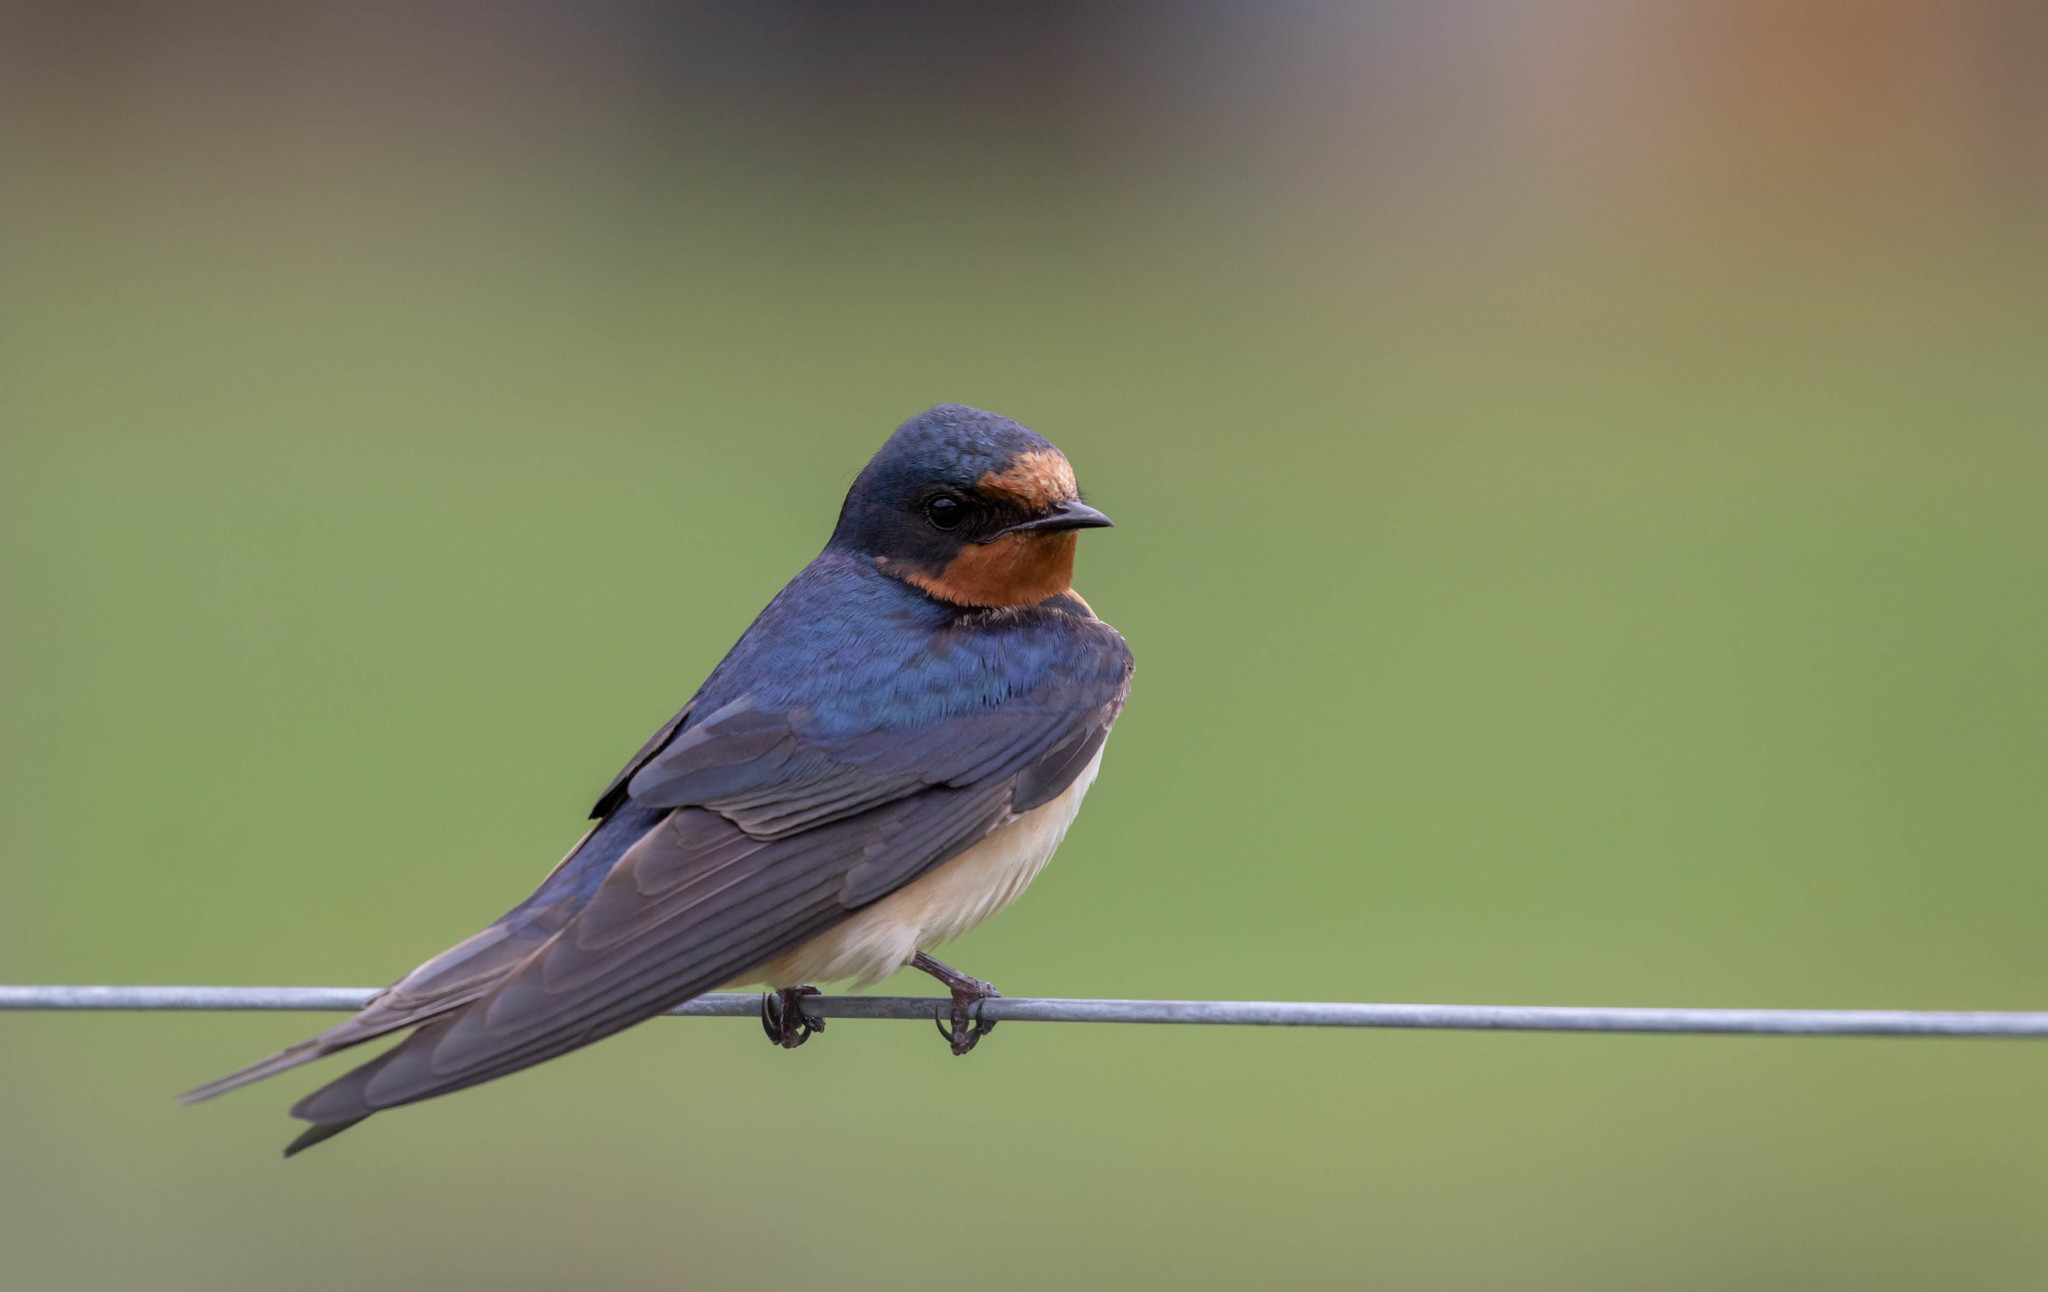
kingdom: Animalia
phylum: Chordata
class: Aves
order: Passeriformes
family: Hirundinidae
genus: Hirundo
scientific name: Hirundo rustica
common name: Barn swallow
